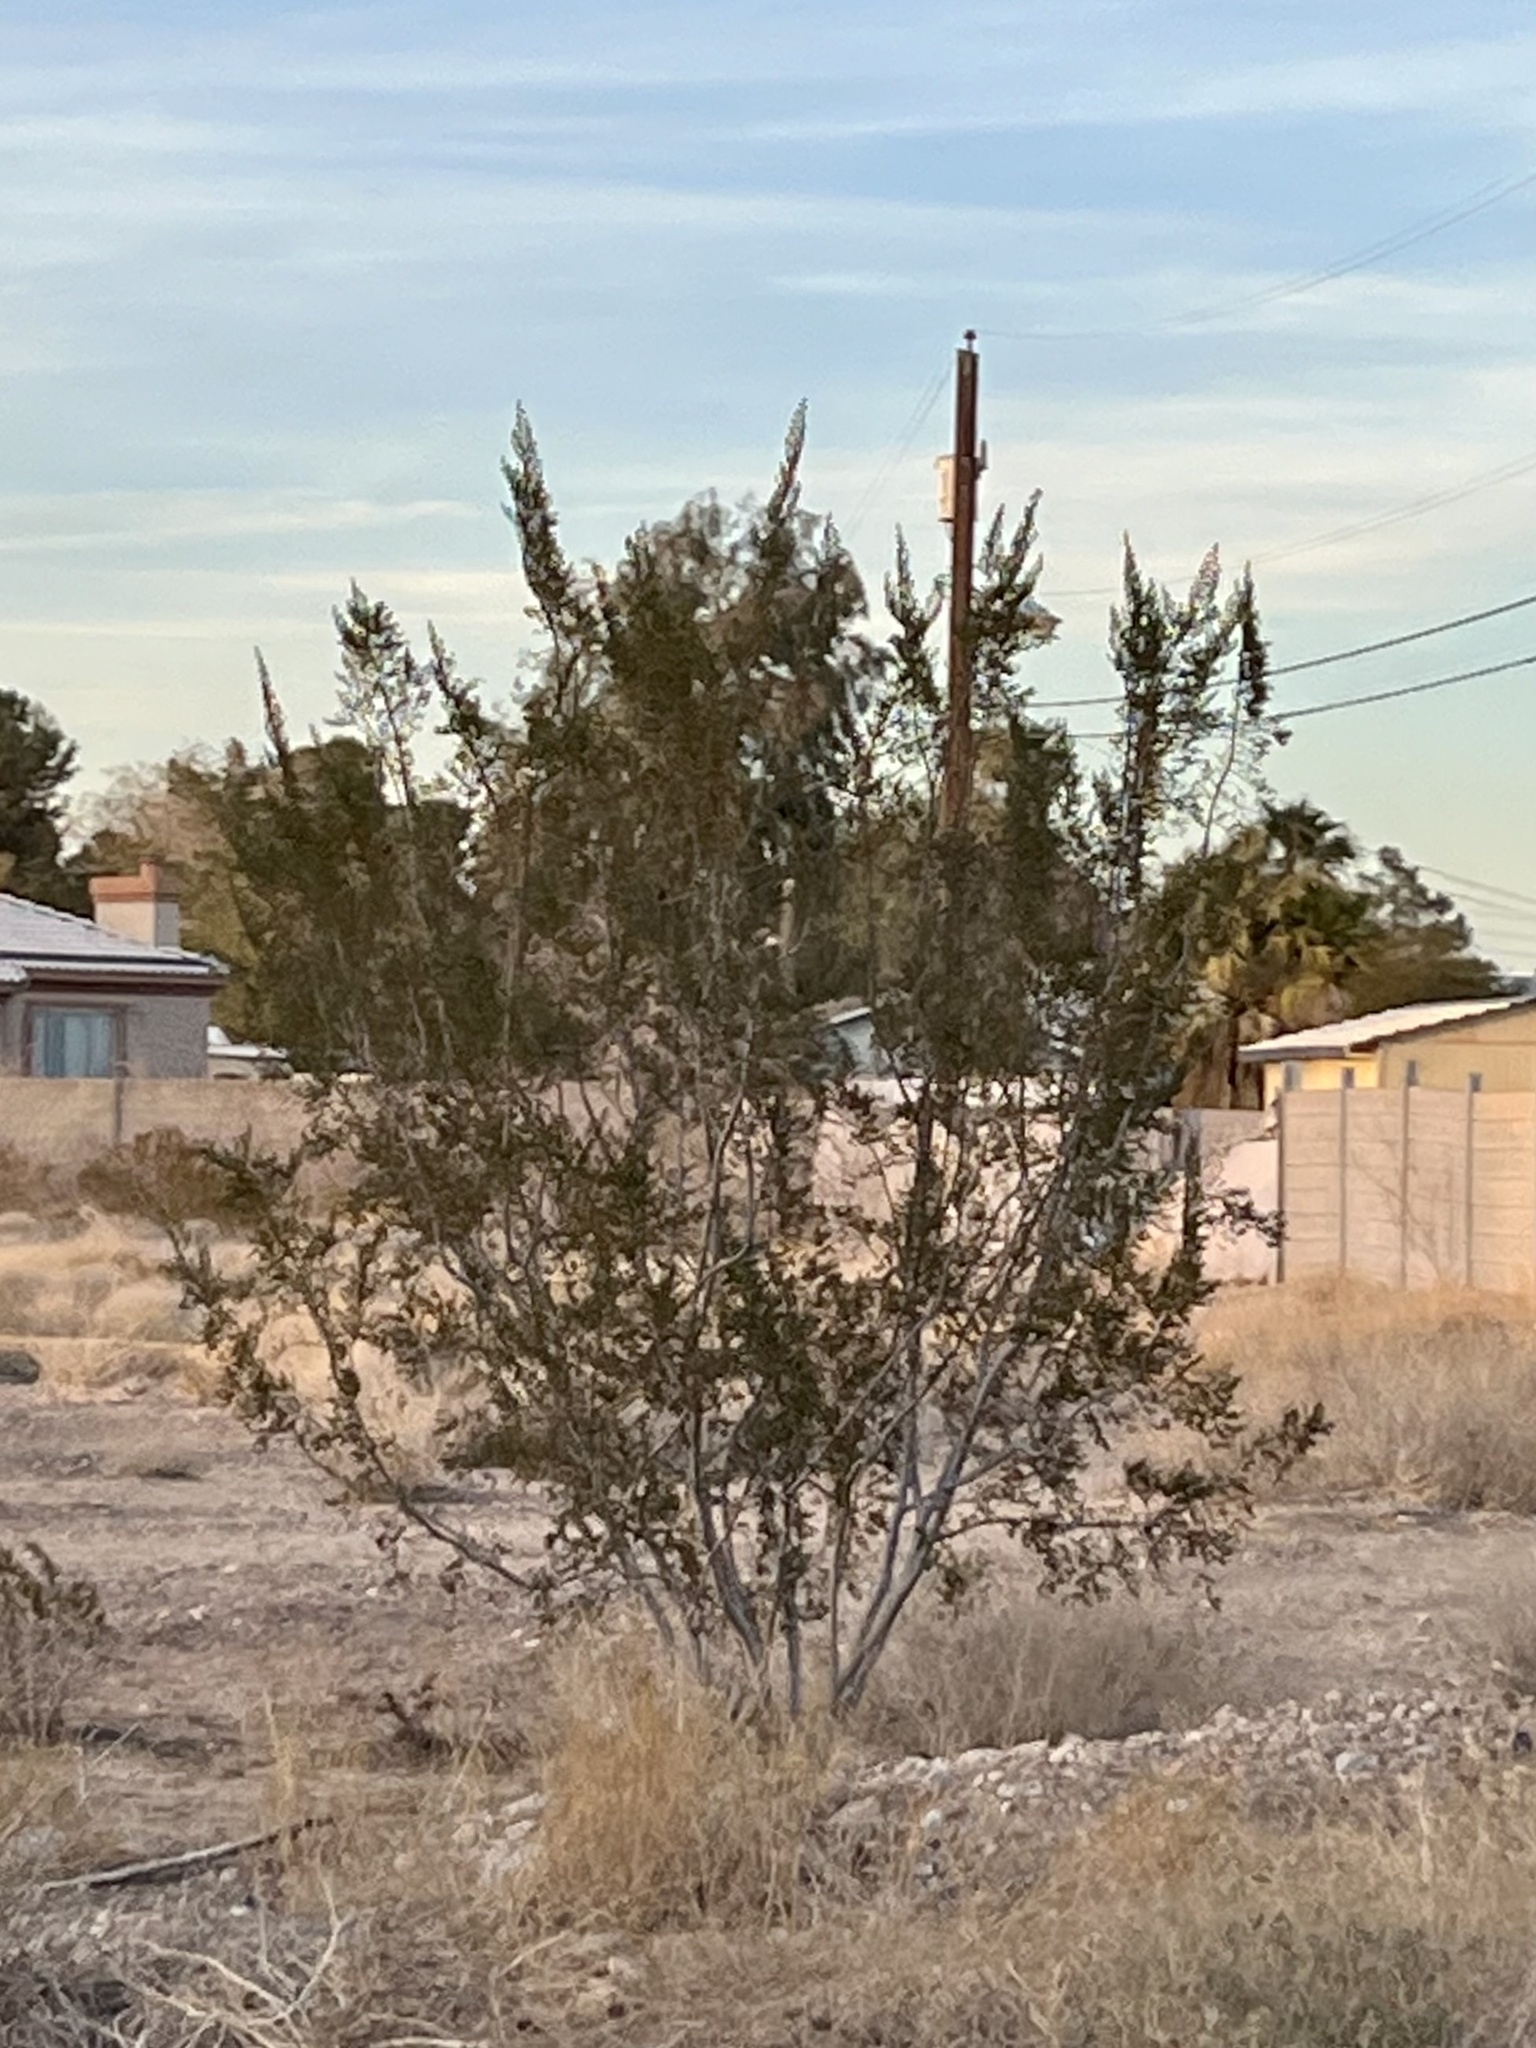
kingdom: Plantae
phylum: Tracheophyta
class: Magnoliopsida
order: Zygophyllales
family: Zygophyllaceae
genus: Larrea
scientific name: Larrea tridentata
